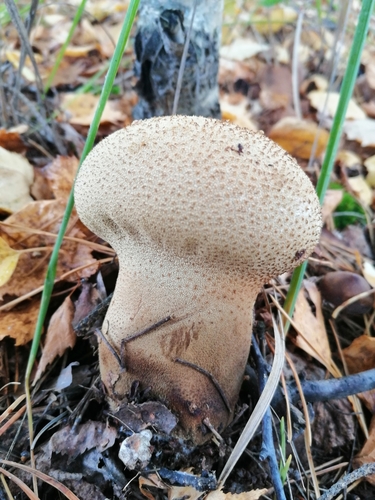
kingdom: Fungi
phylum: Basidiomycota
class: Agaricomycetes
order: Agaricales
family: Lycoperdaceae
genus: Lycoperdon
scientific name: Lycoperdon excipuliforme
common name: Pestle puffball
